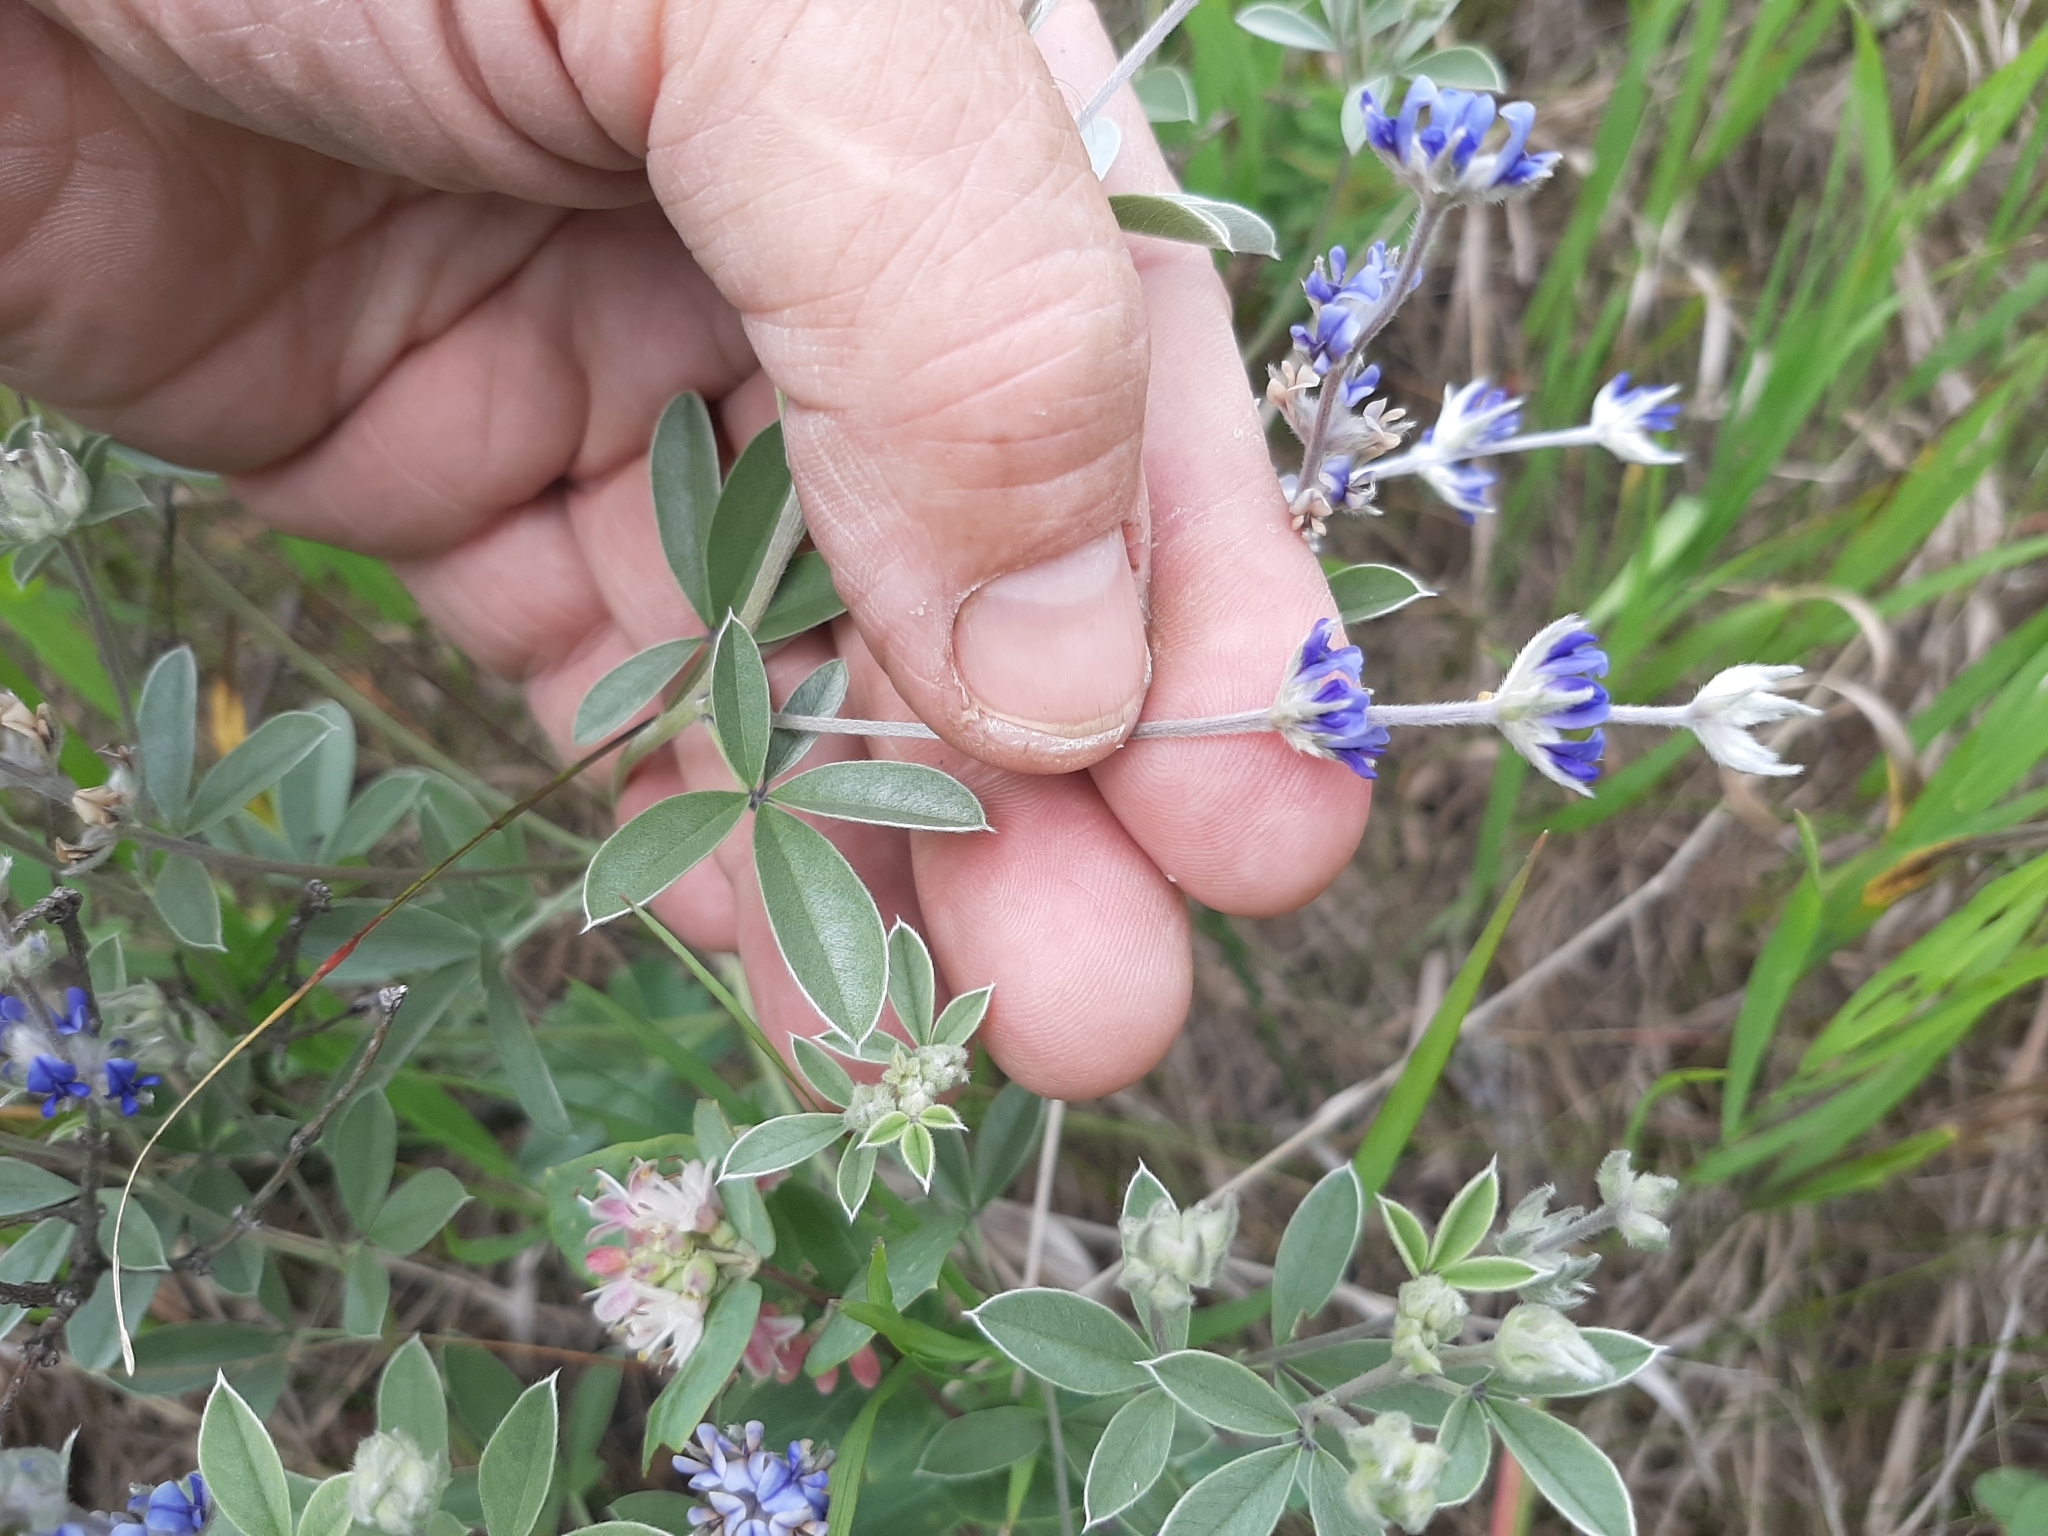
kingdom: Plantae
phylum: Tracheophyta
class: Magnoliopsida
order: Fabales
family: Fabaceae
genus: Pediomelum
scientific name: Pediomelum argophyllum
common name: Silver-leaved indian breadroot
